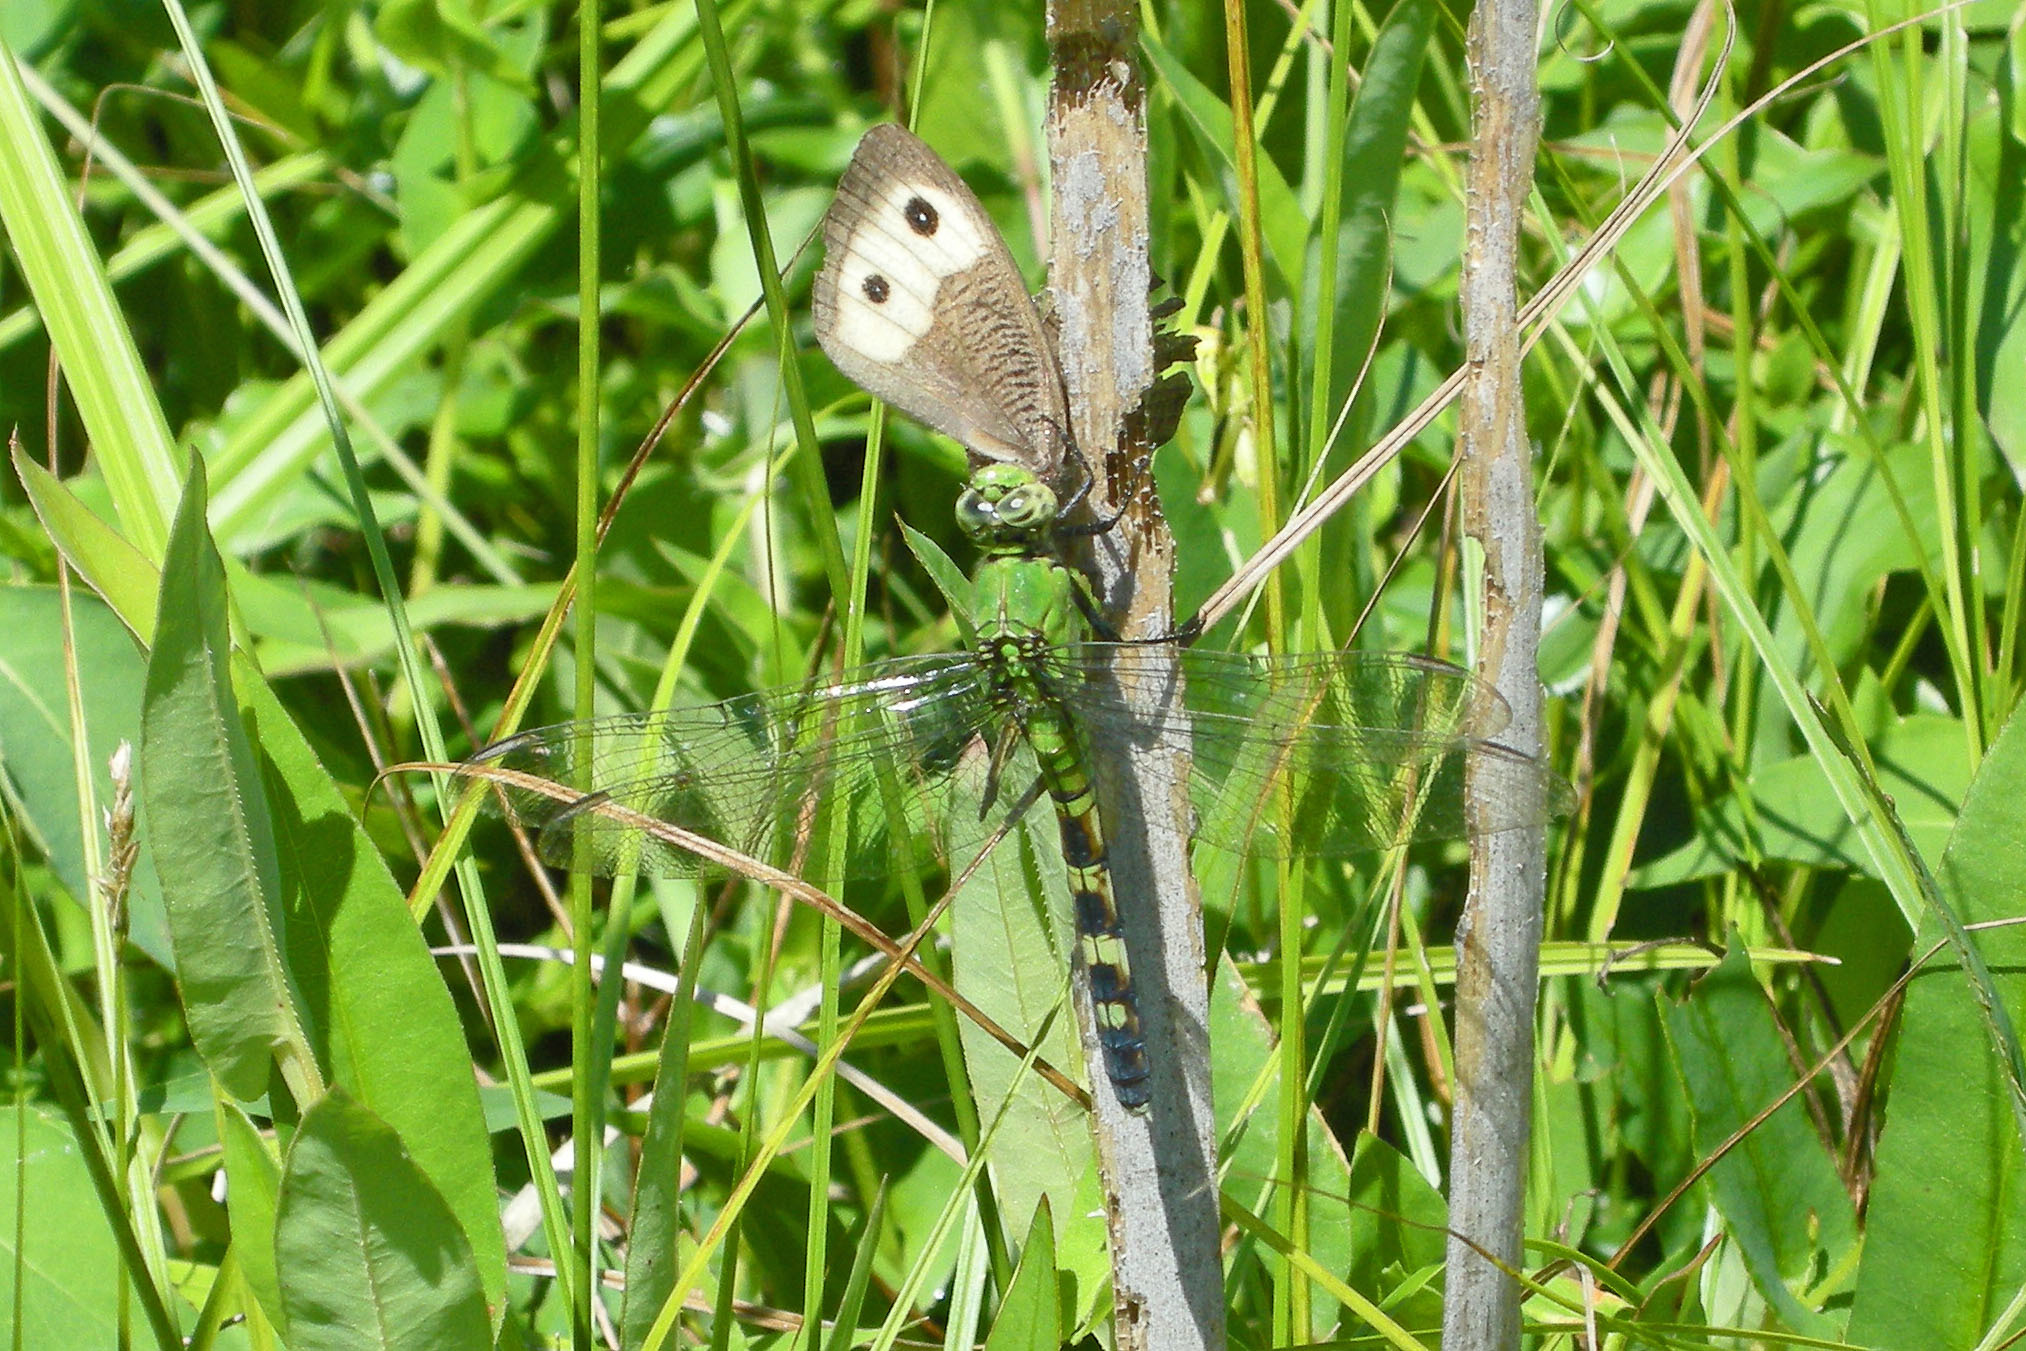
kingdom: Animalia
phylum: Arthropoda
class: Insecta
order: Odonata
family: Libellulidae
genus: Erythemis
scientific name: Erythemis simplicicollis
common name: Eastern pondhawk
